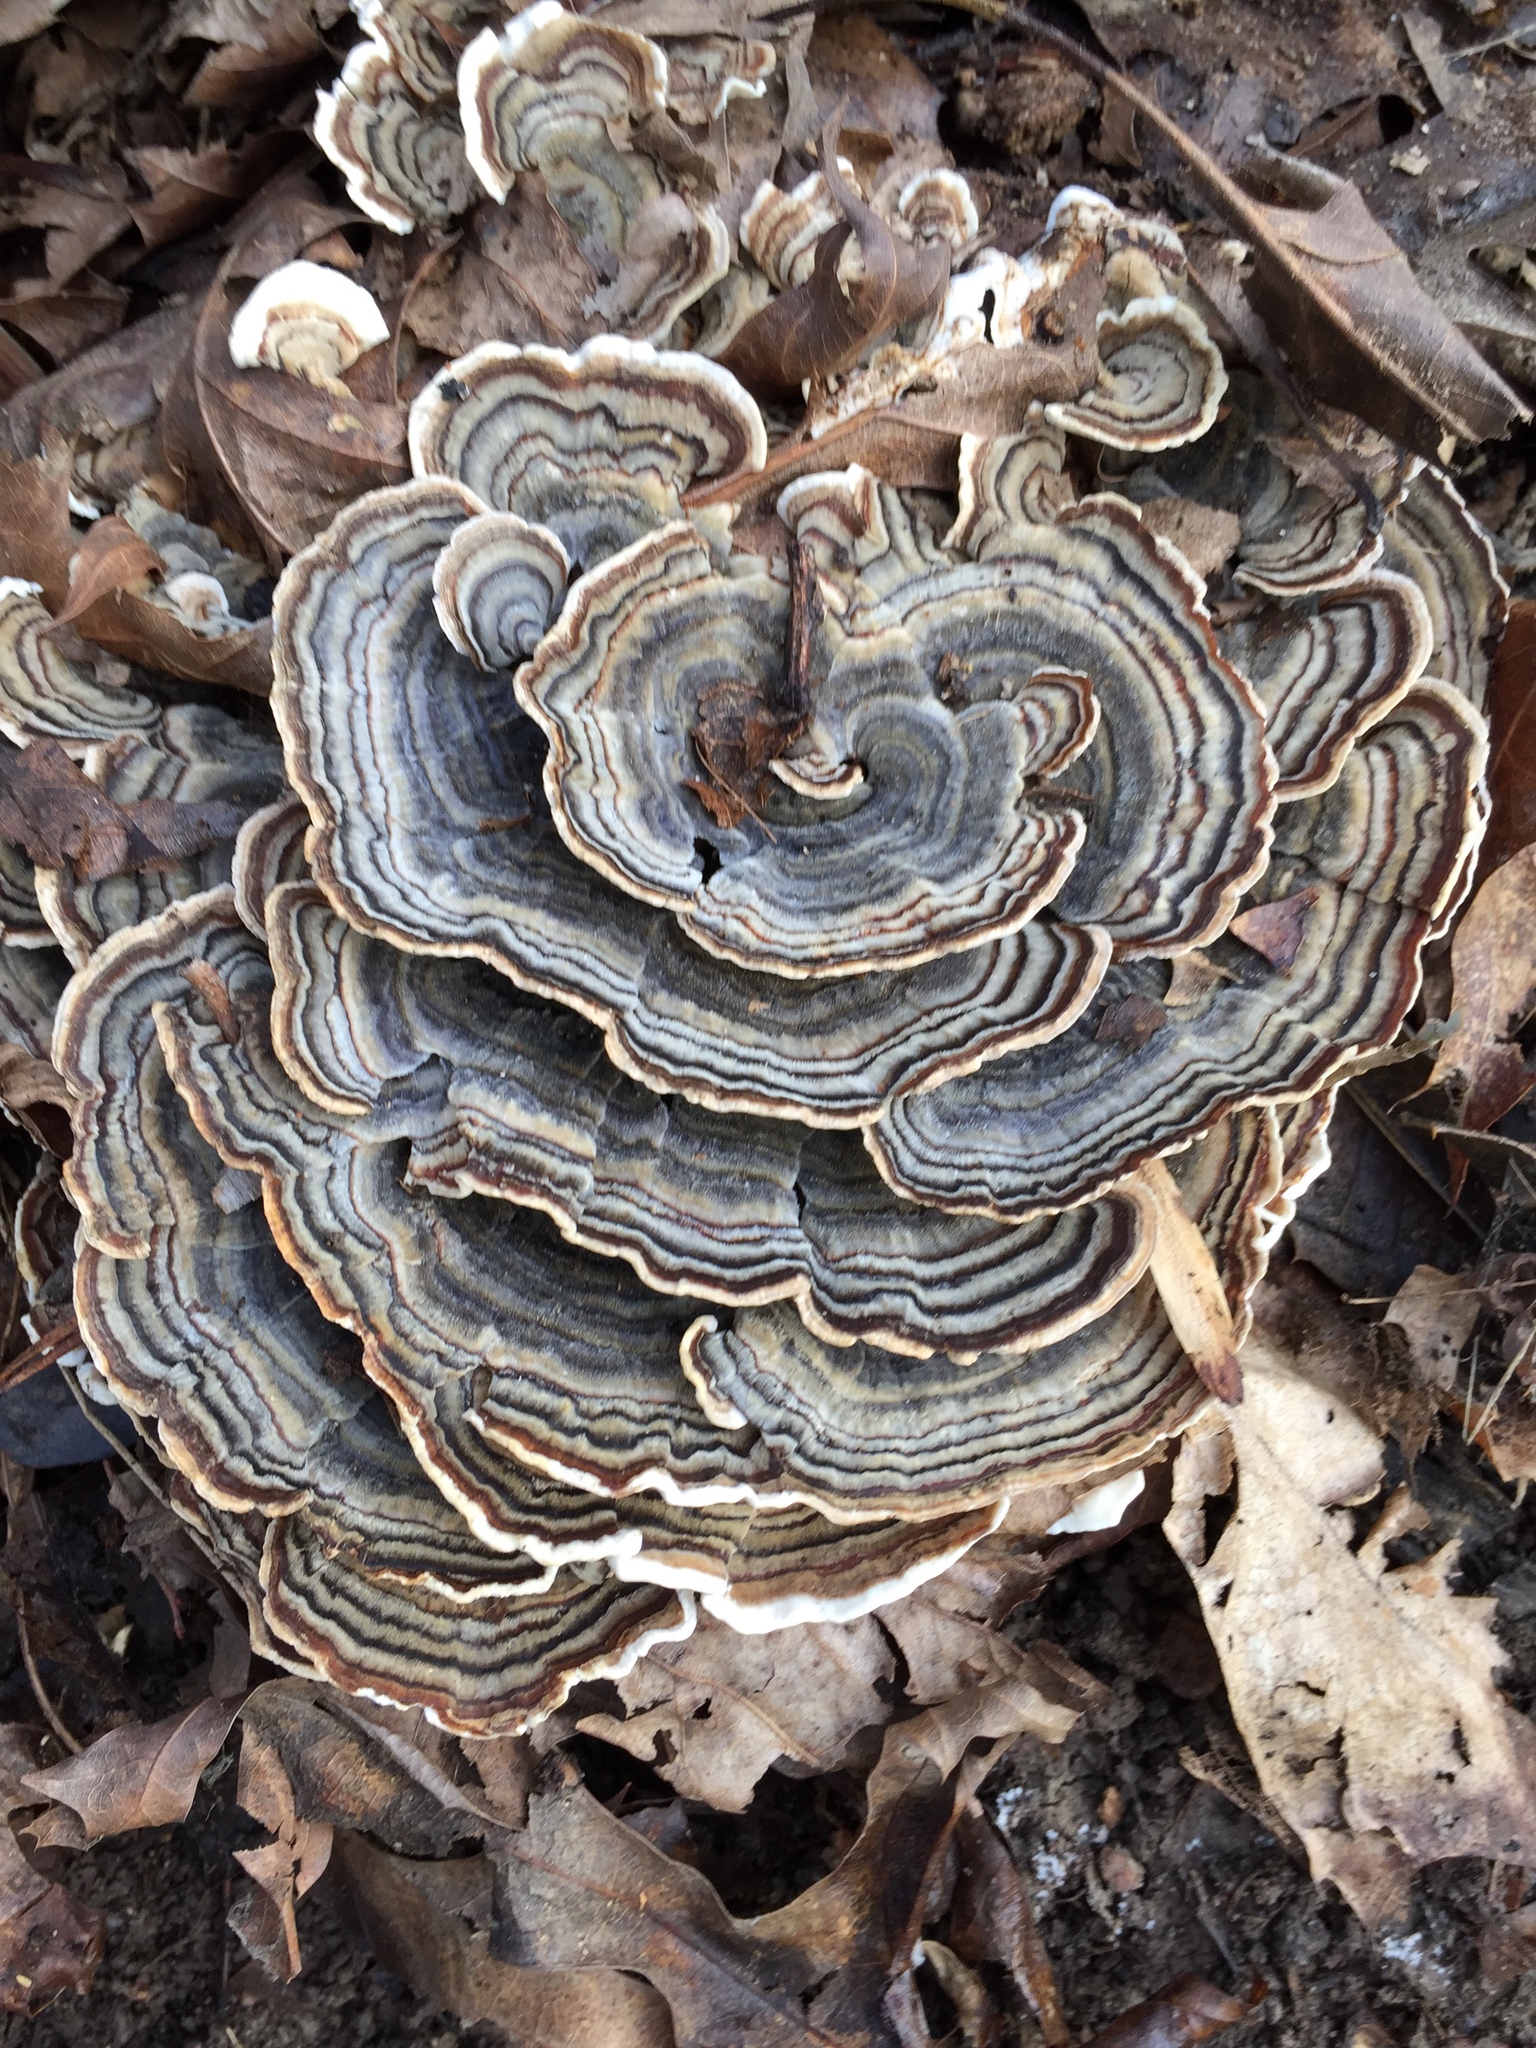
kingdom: Fungi
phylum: Basidiomycota
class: Agaricomycetes
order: Polyporales
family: Polyporaceae
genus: Trametes
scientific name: Trametes versicolor
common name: Turkeytail
